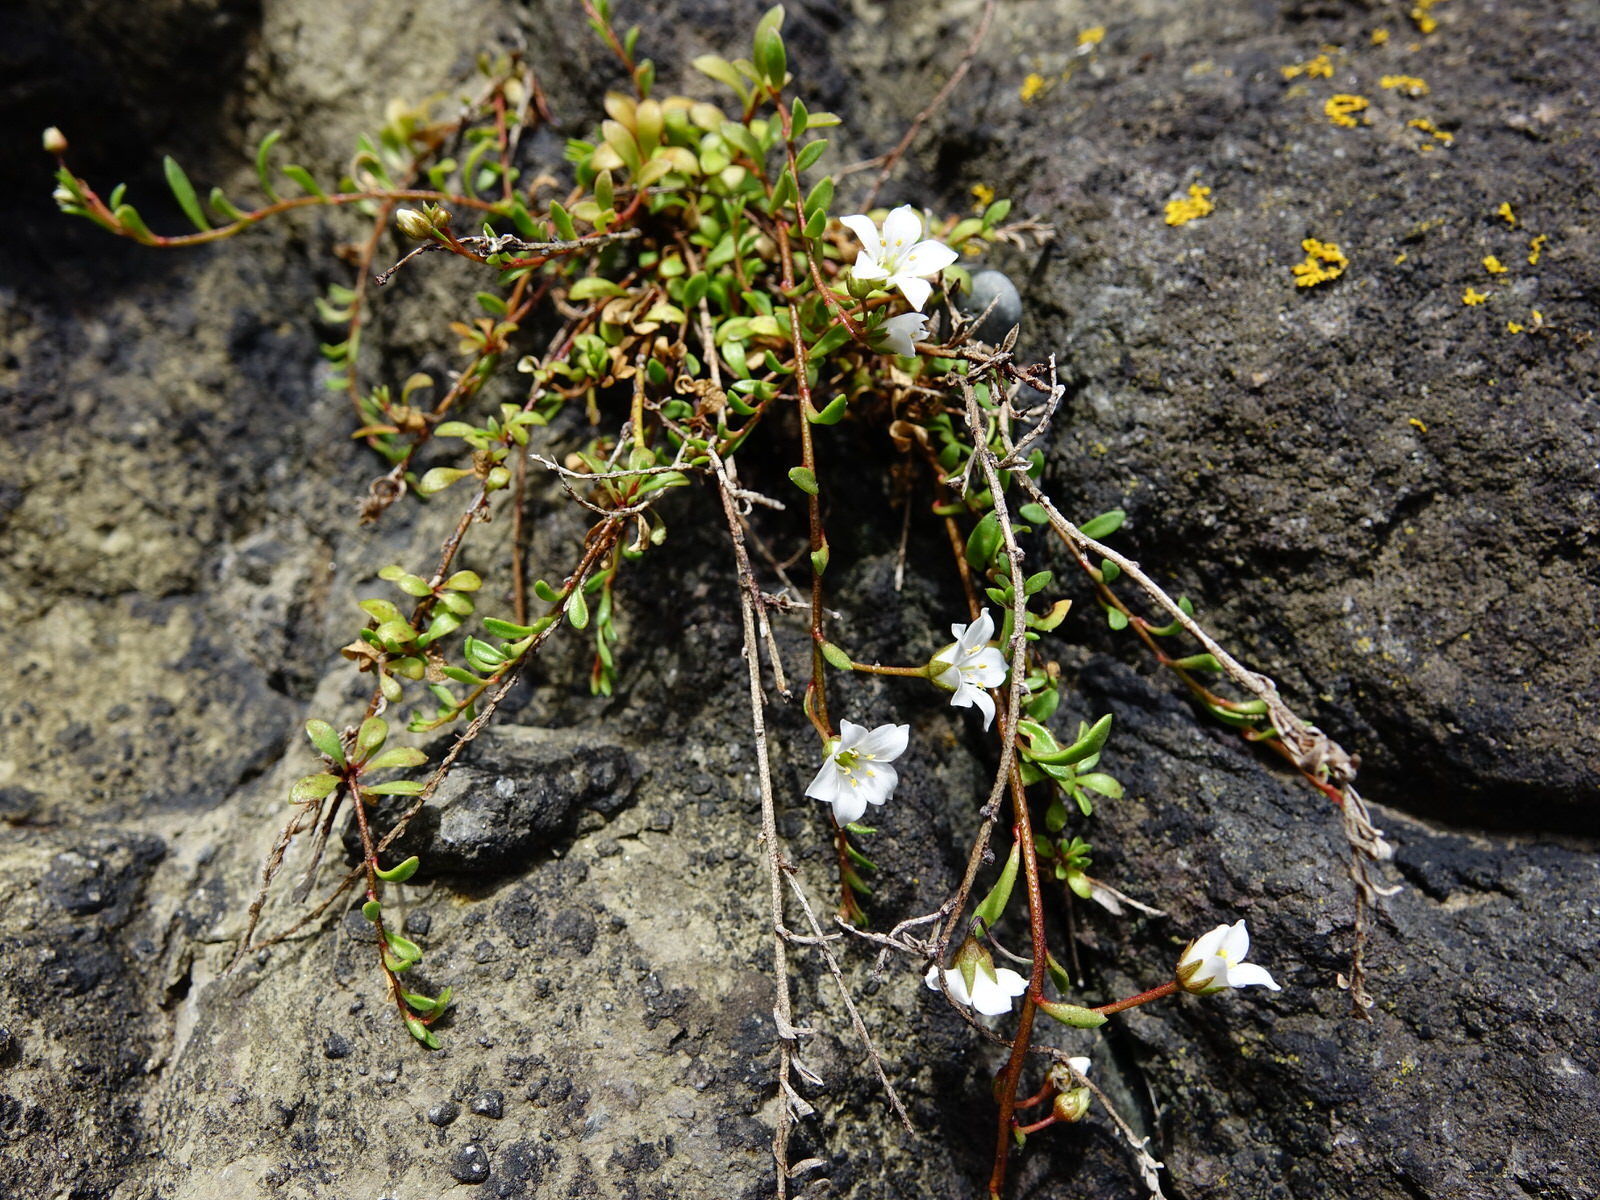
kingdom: Plantae
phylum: Tracheophyta
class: Magnoliopsida
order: Ericales
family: Primulaceae
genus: Samolus
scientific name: Samolus repens
